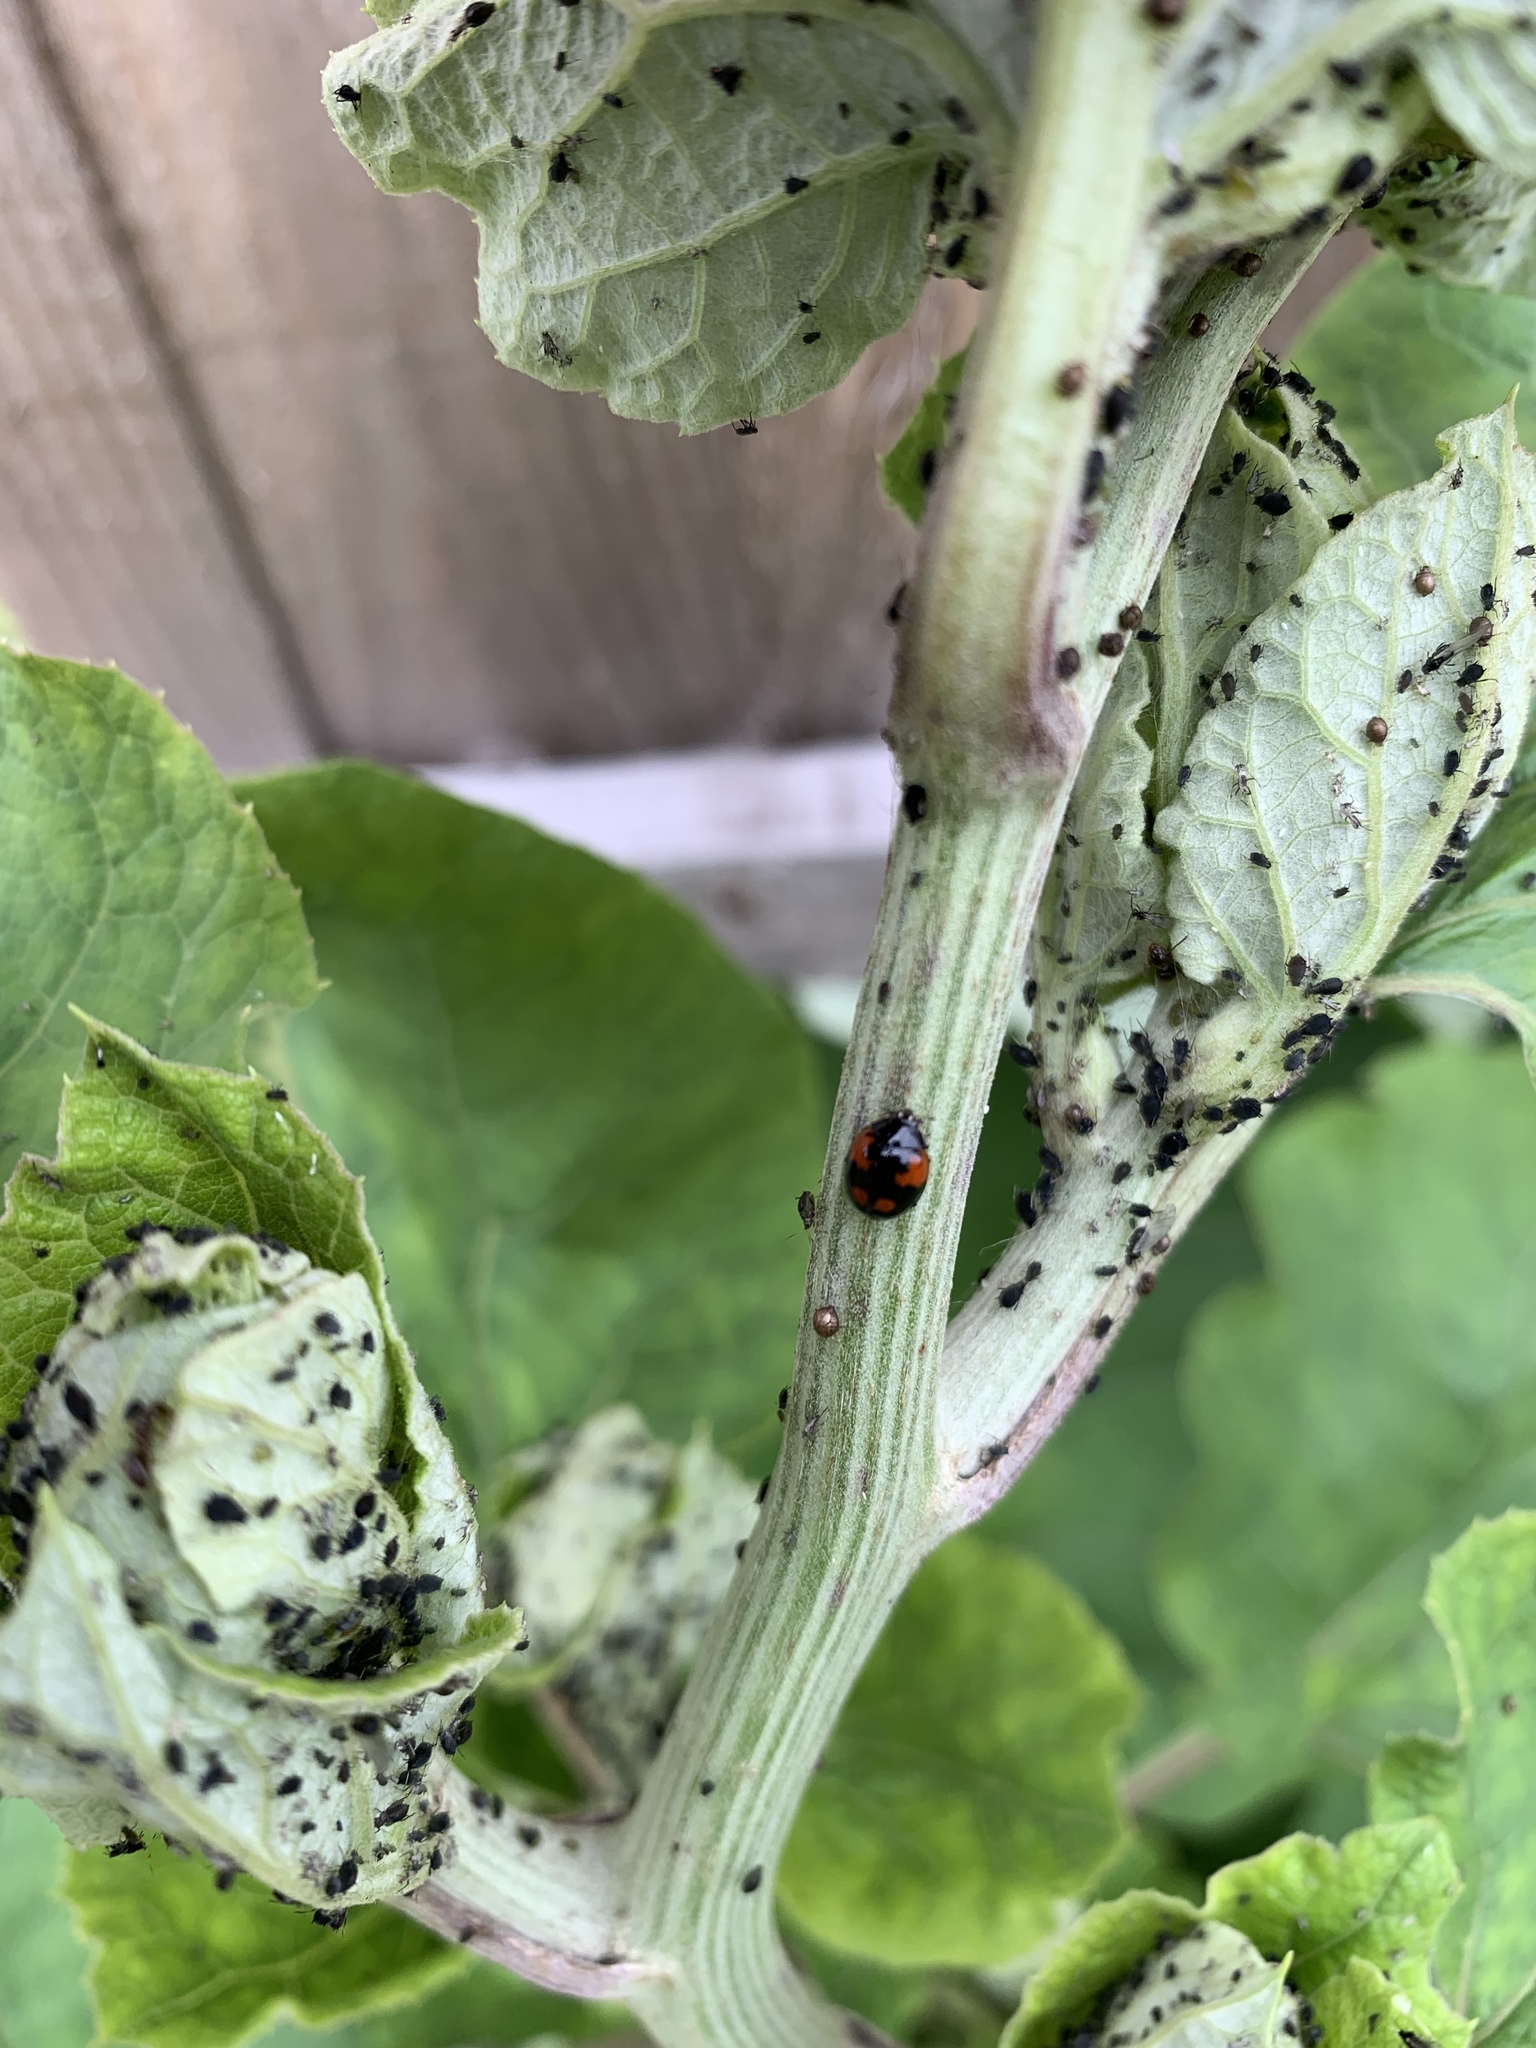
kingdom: Animalia
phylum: Arthropoda
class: Insecta
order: Coleoptera
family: Coccinellidae
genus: Adalia
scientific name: Adalia bipunctata
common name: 2-spot ladybird
